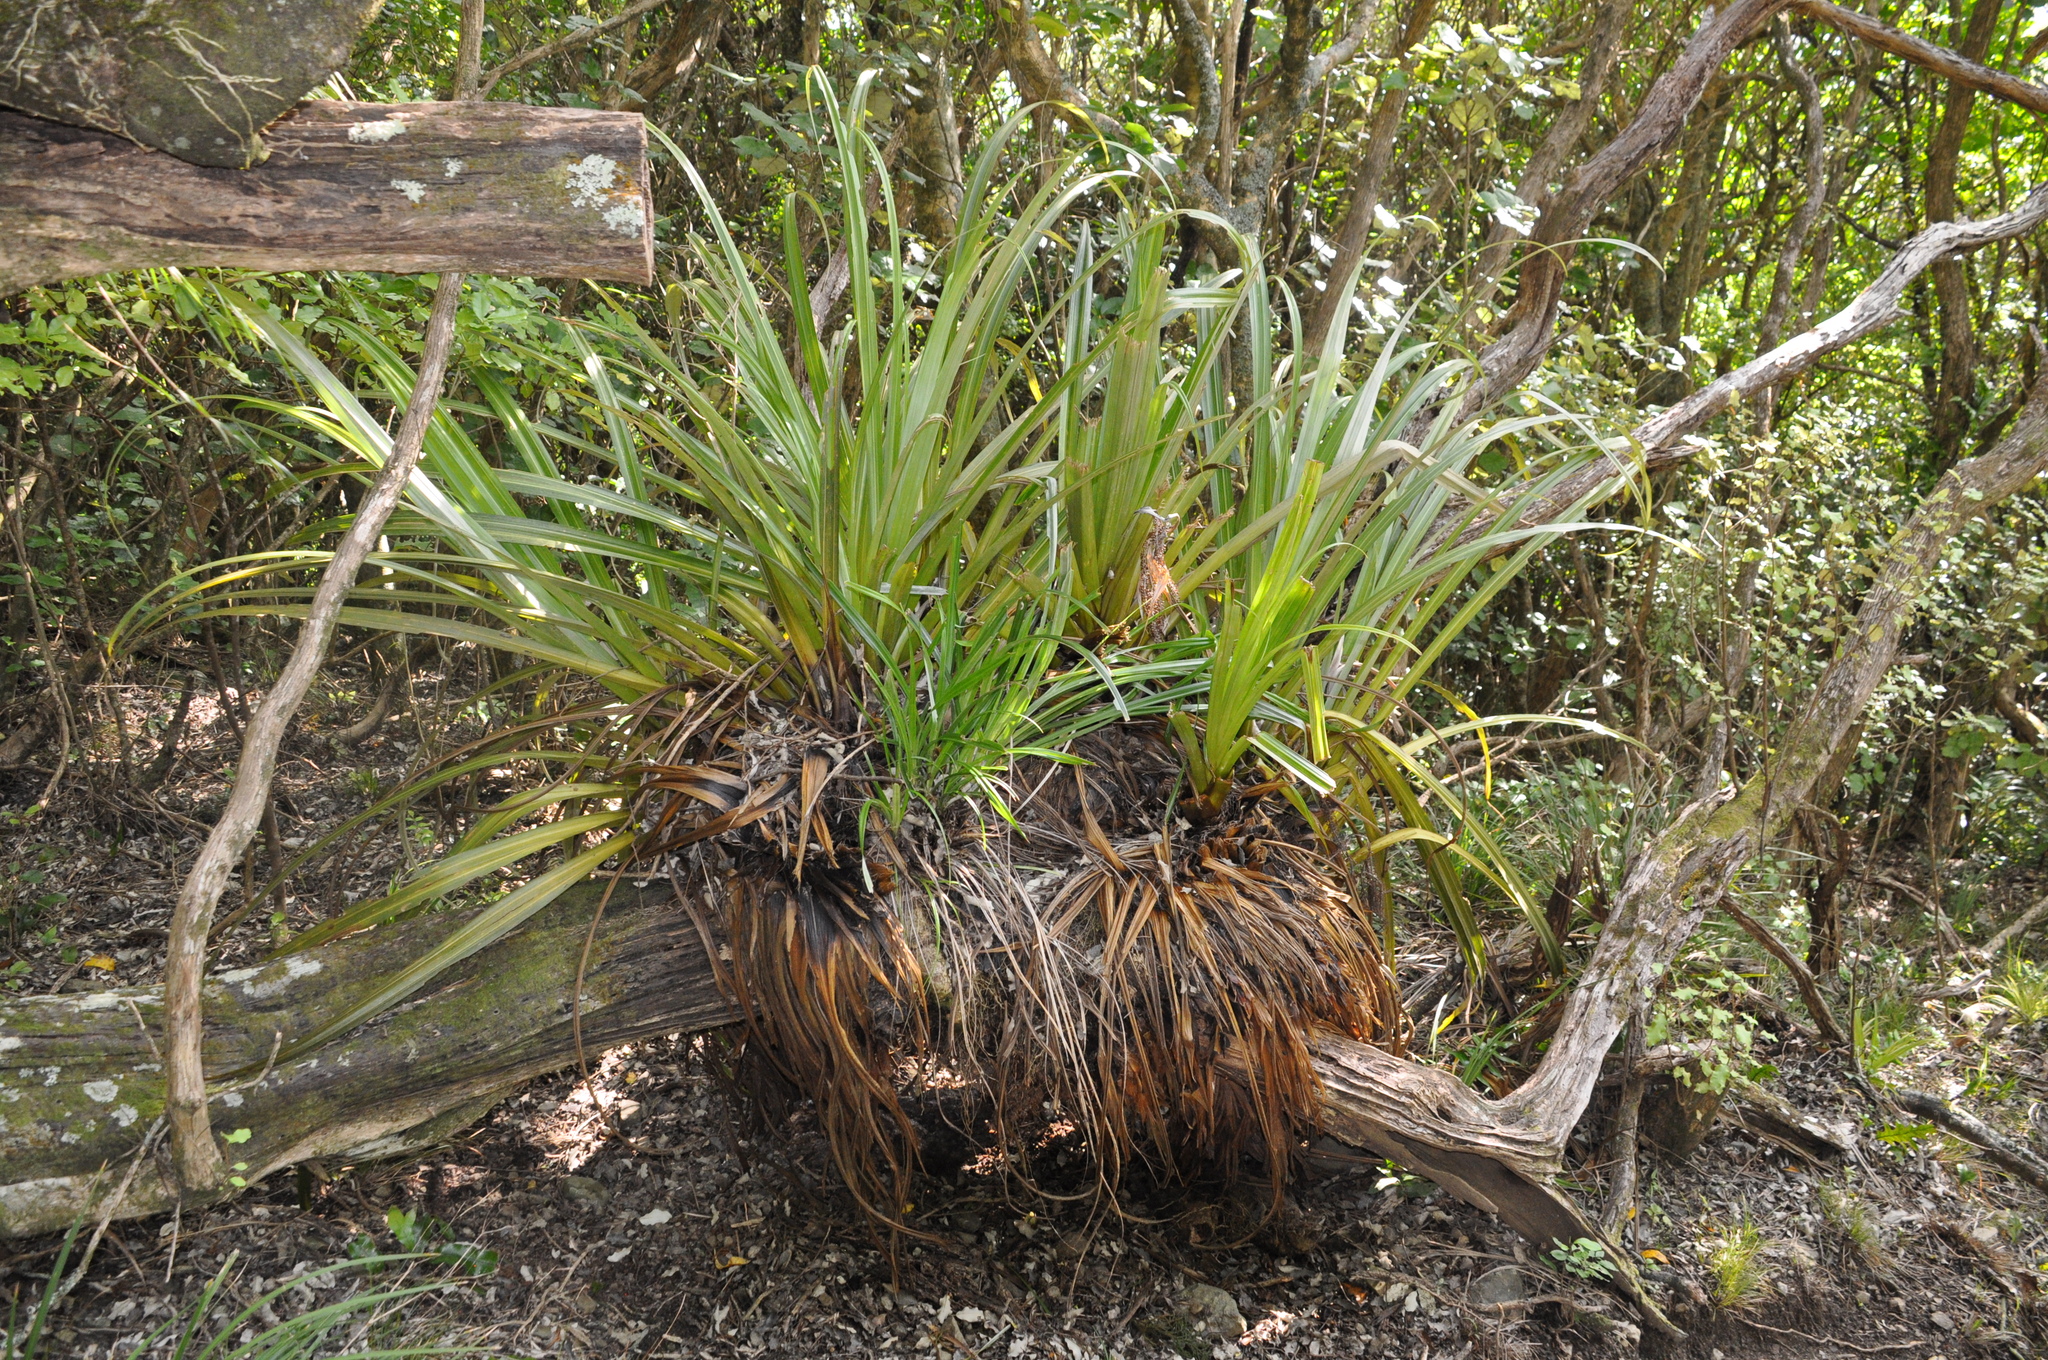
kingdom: Plantae
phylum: Tracheophyta
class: Liliopsida
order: Asparagales
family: Asteliaceae
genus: Astelia
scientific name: Astelia hastata
